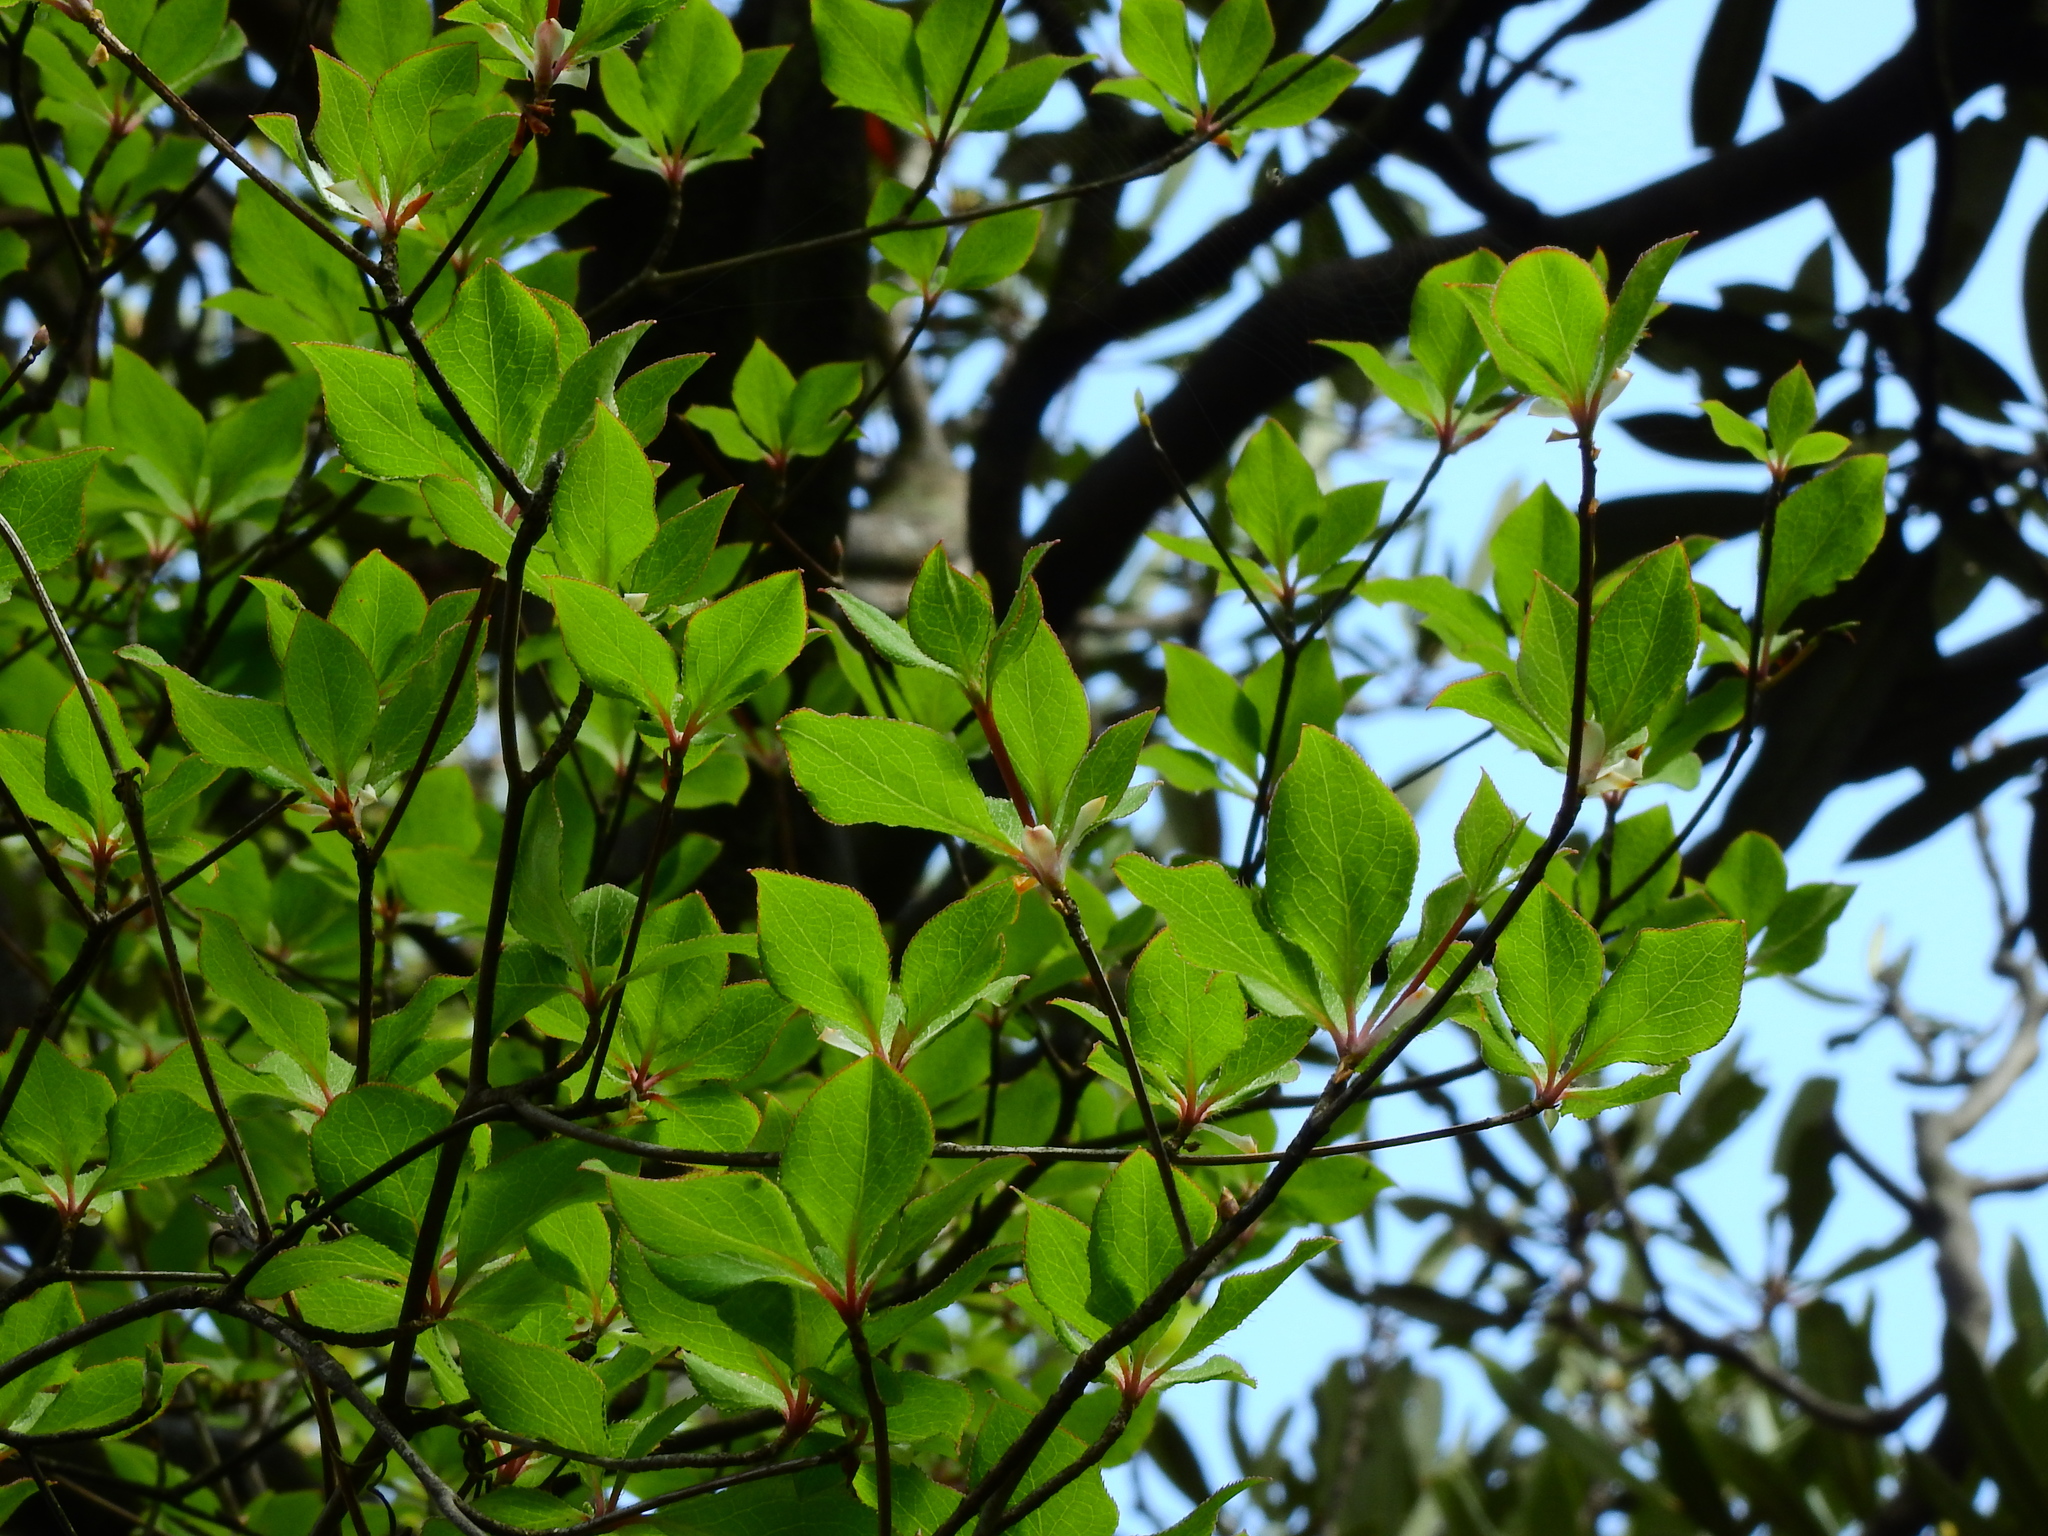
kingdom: Plantae
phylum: Tracheophyta
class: Magnoliopsida
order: Ericales
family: Ericaceae
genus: Enkianthus
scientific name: Enkianthus perulatus
